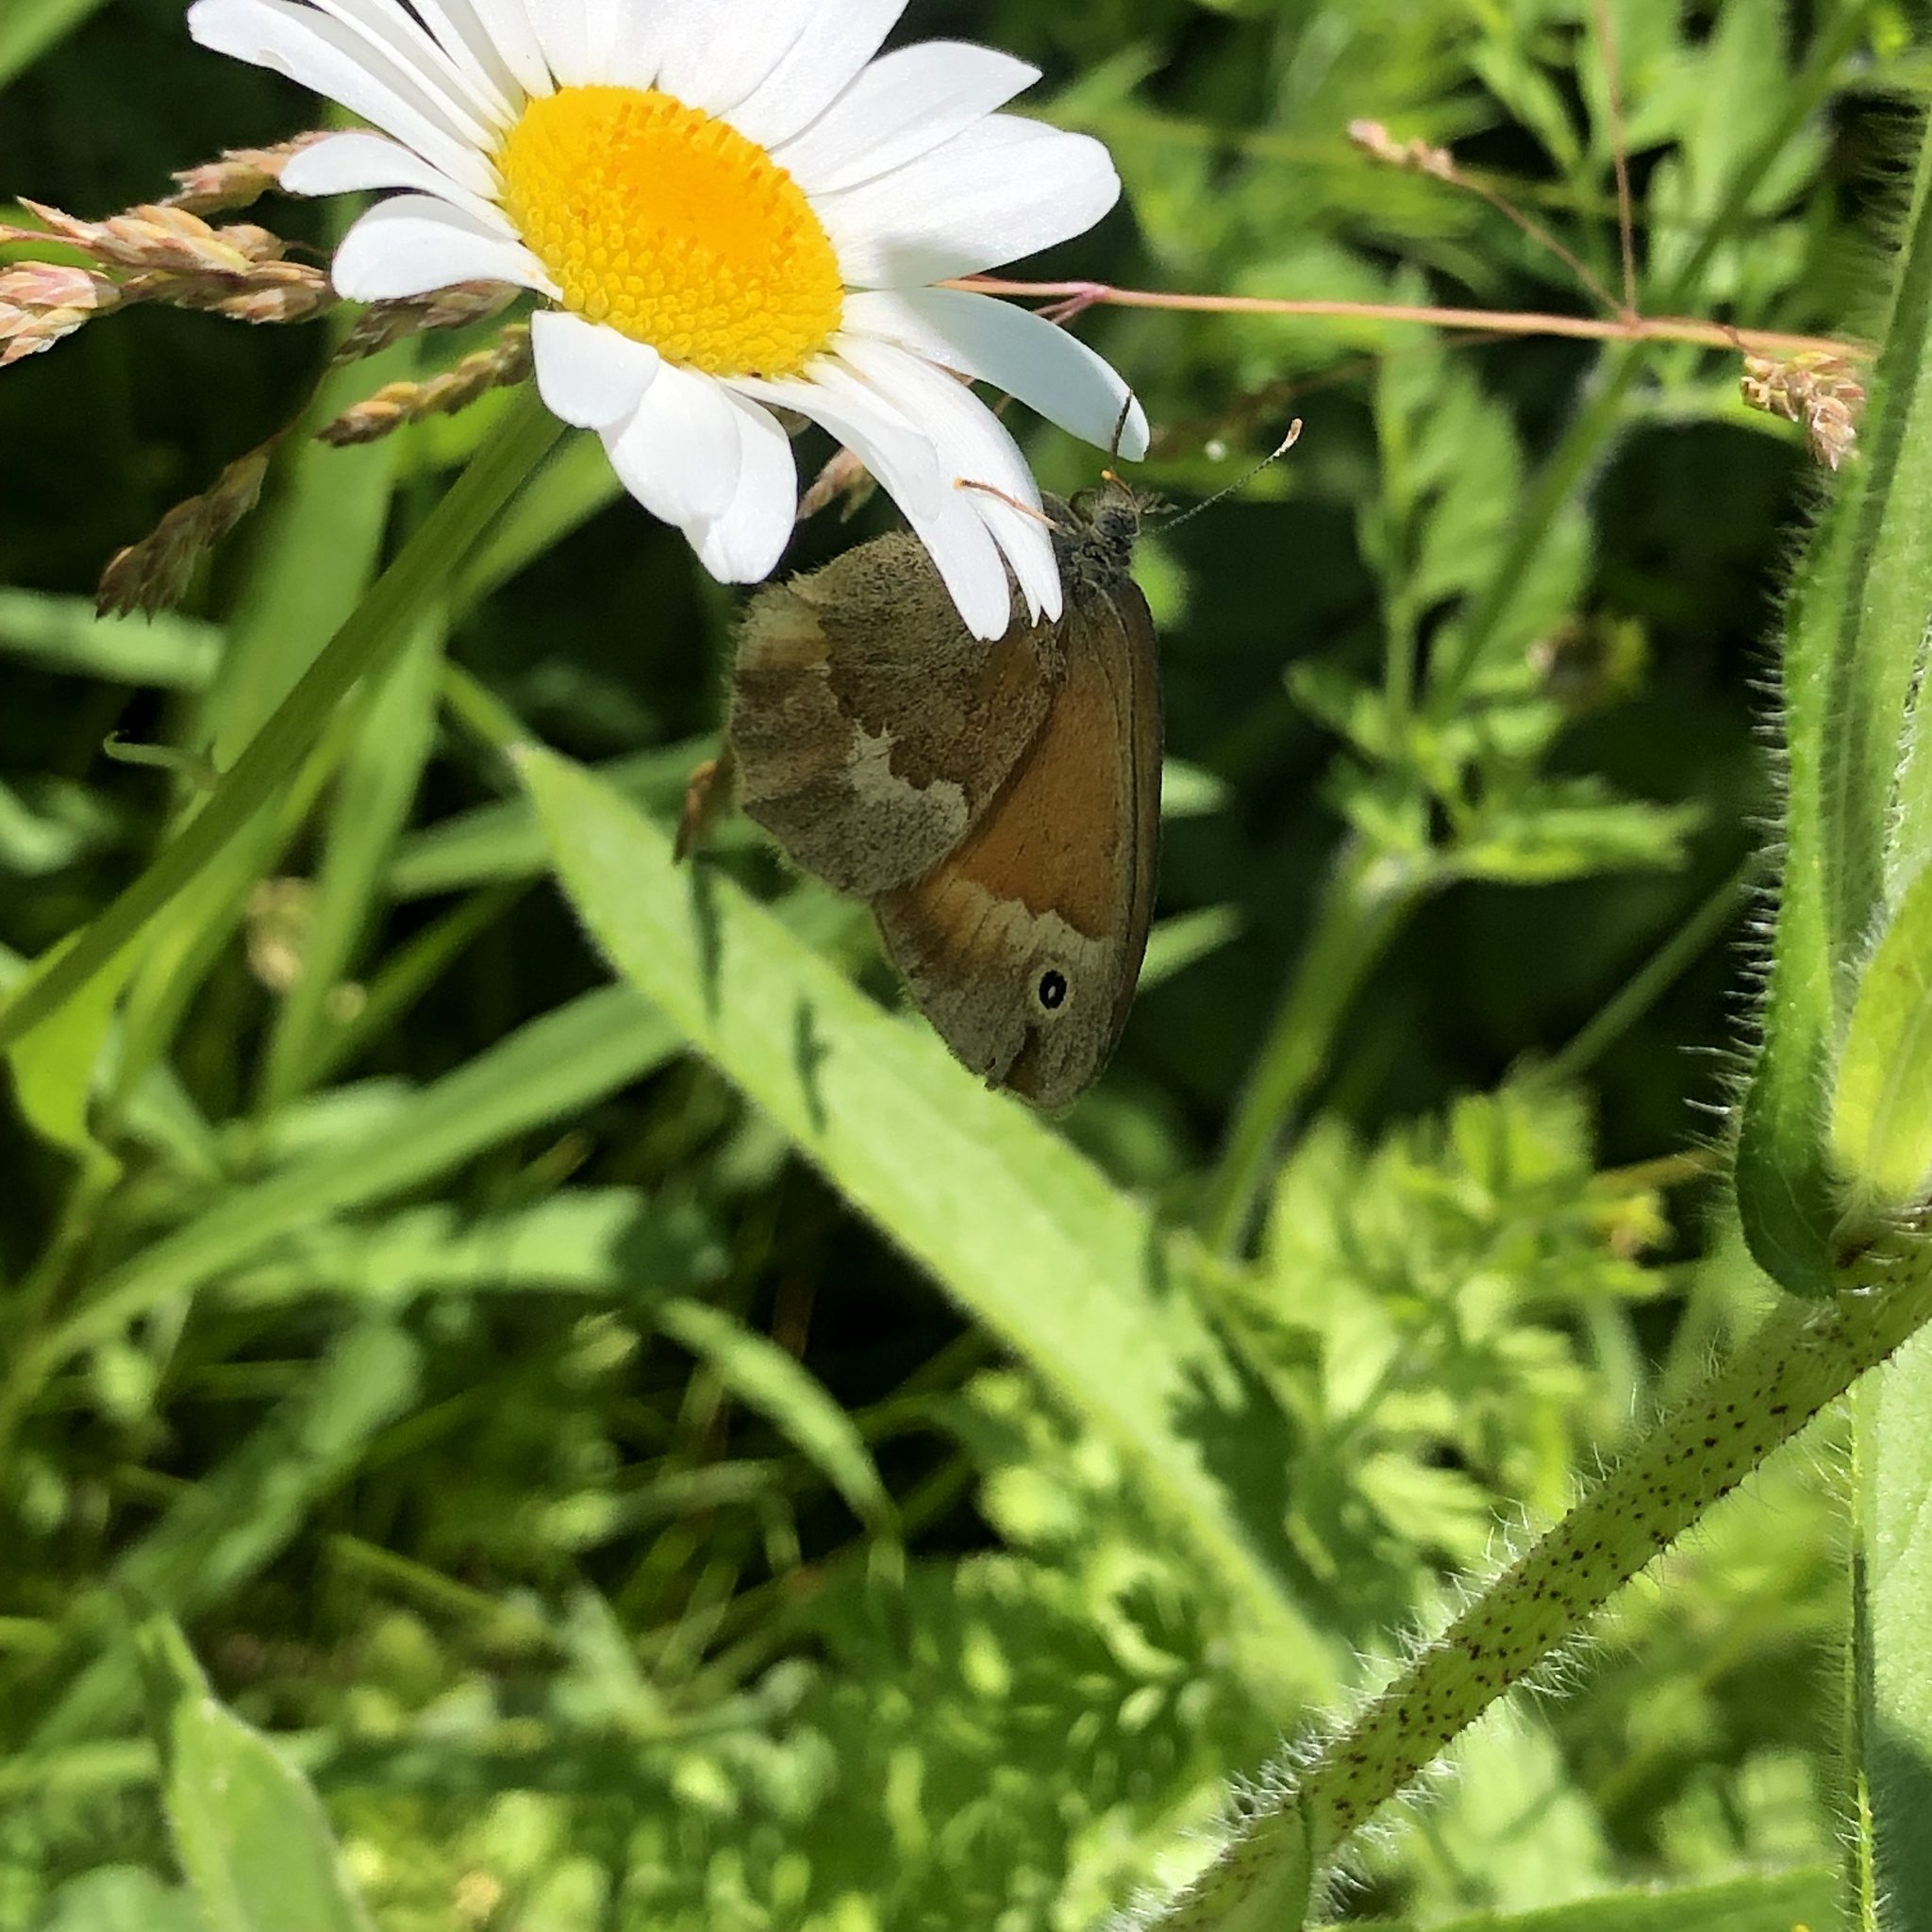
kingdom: Animalia
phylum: Arthropoda
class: Insecta
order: Lepidoptera
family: Nymphalidae
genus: Coenonympha
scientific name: Coenonympha california
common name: Common ringlet
